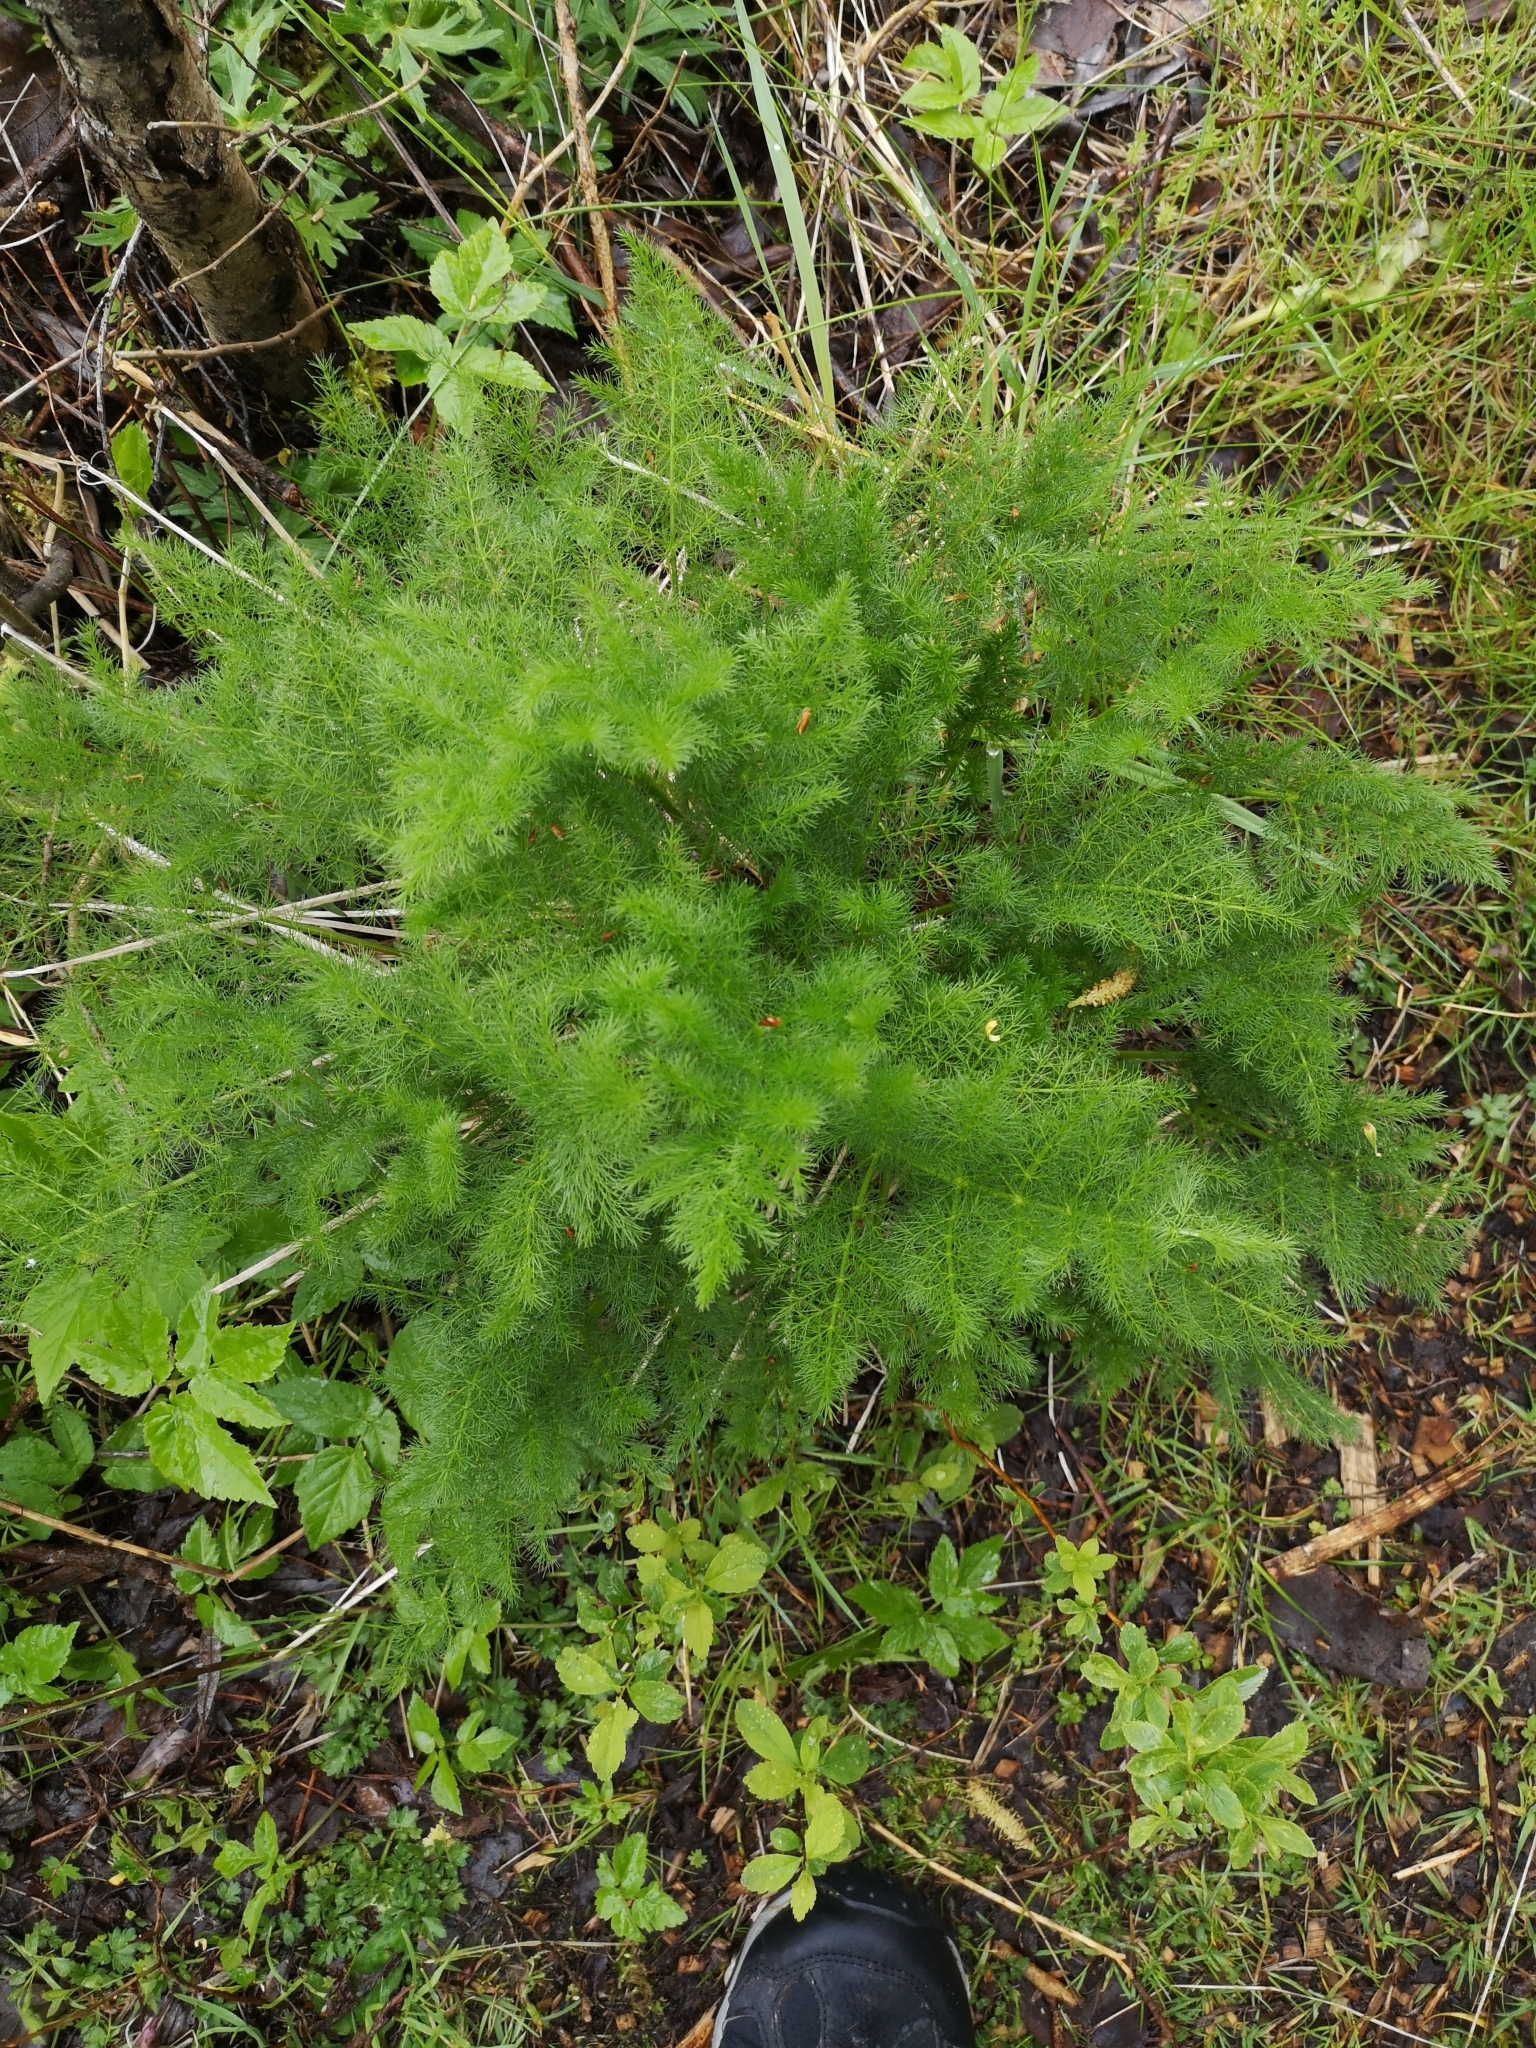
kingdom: Plantae
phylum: Tracheophyta
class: Magnoliopsida
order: Apiales
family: Apiaceae
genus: Meum
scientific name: Meum athamanticum
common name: Spignel
